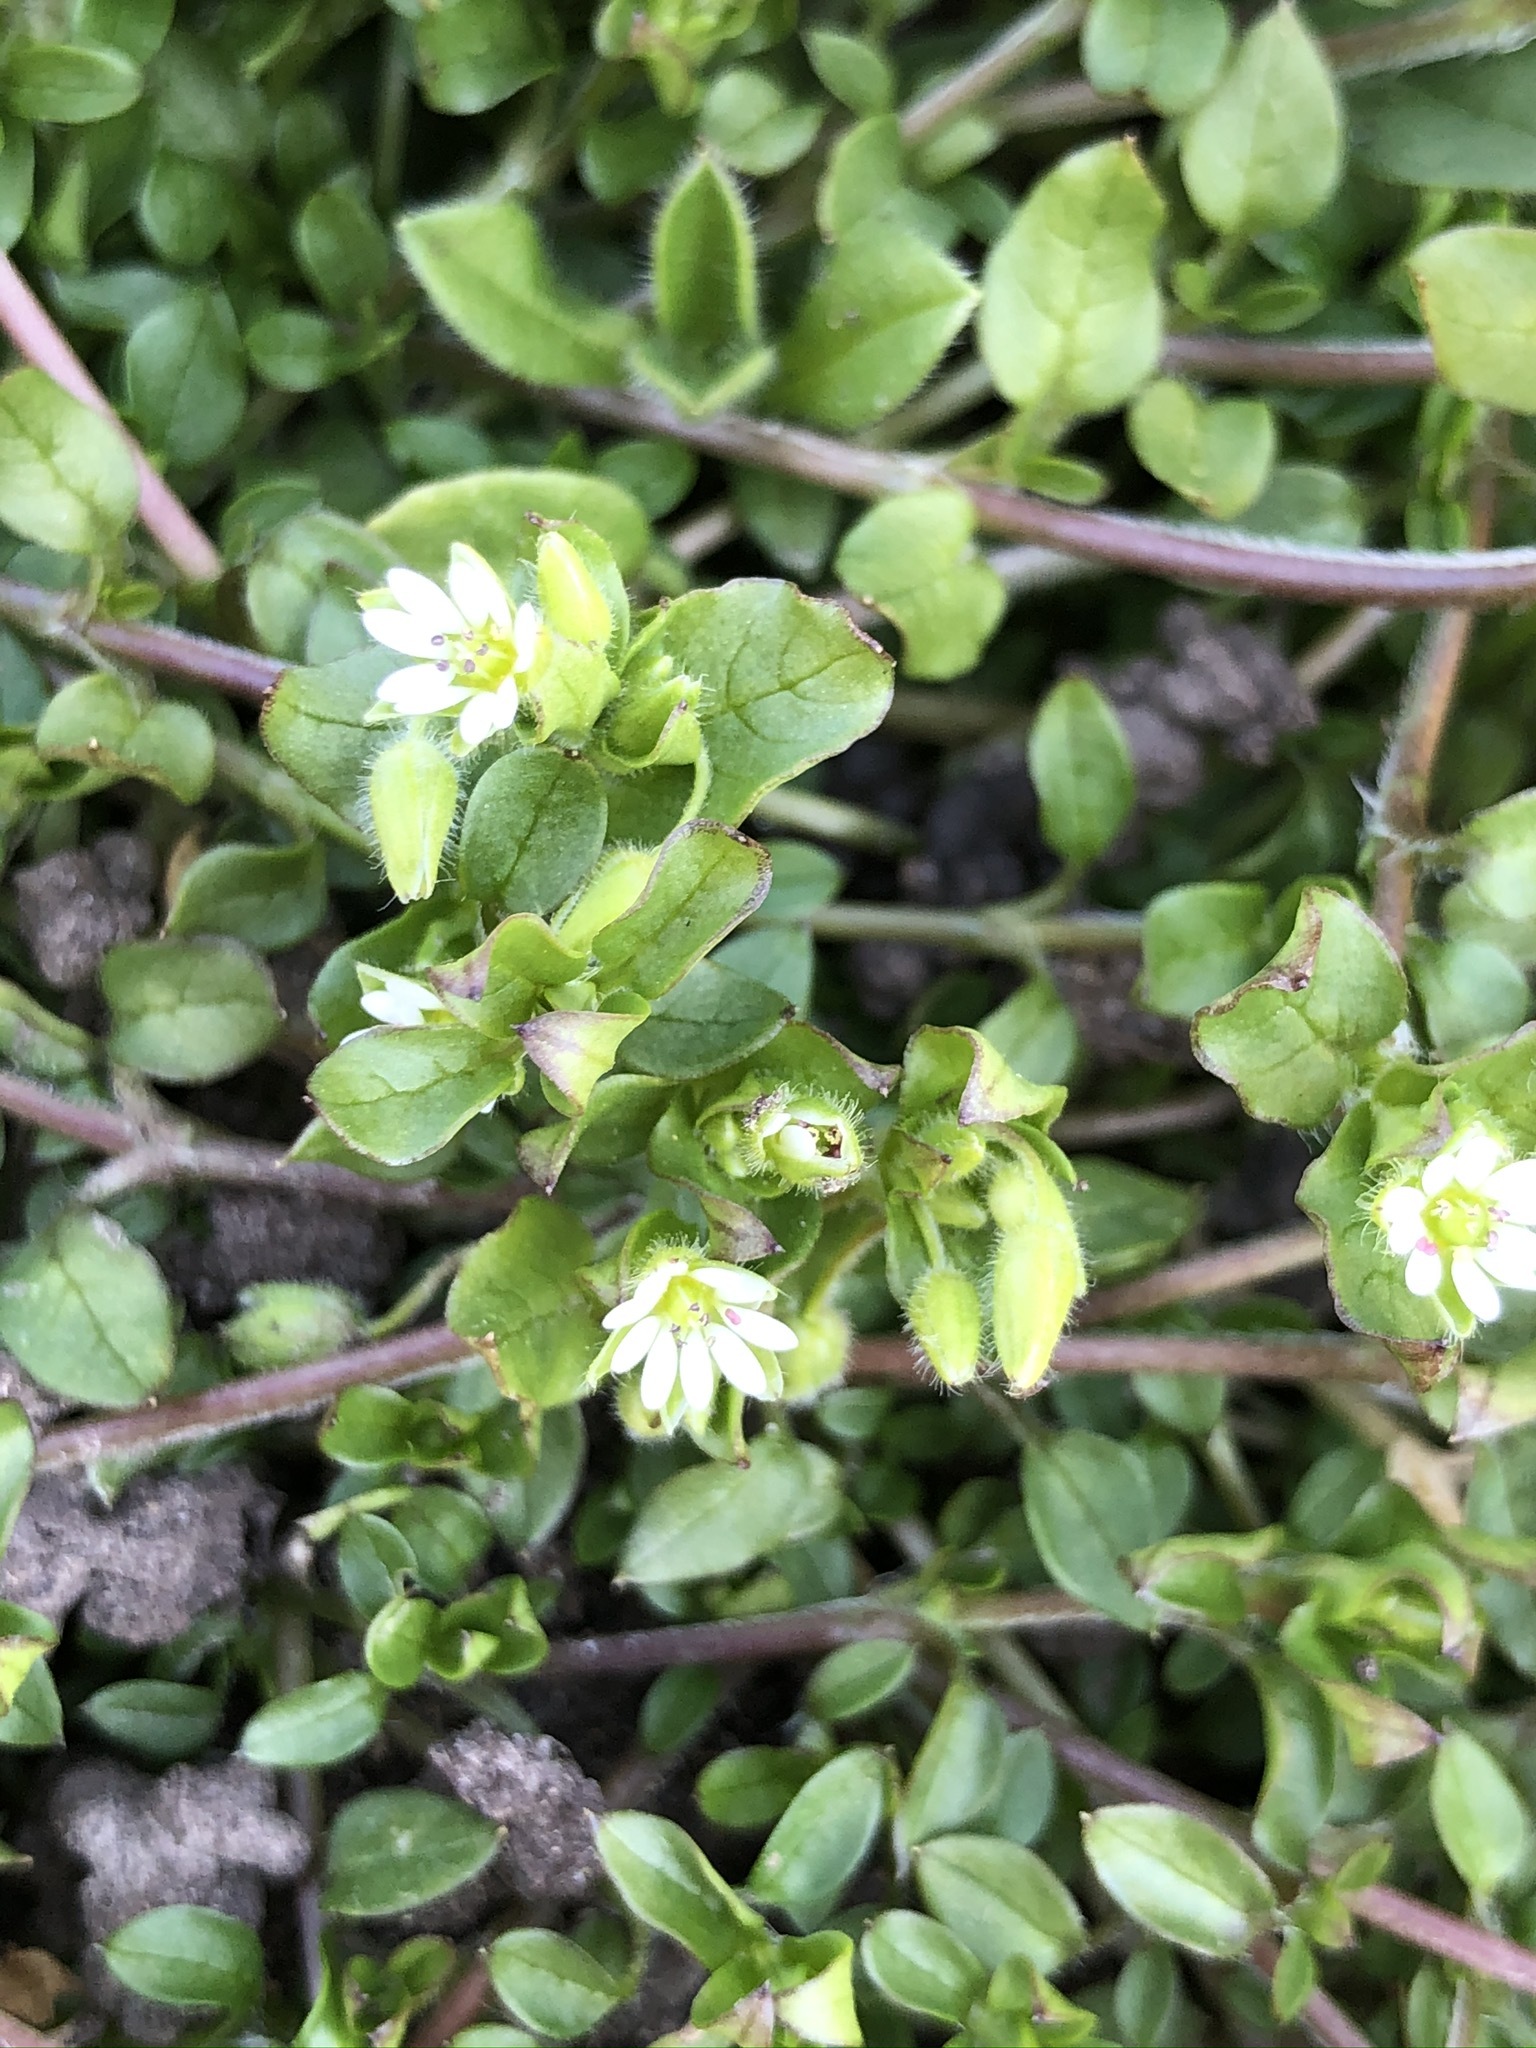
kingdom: Plantae
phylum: Tracheophyta
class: Magnoliopsida
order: Caryophyllales
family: Caryophyllaceae
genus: Stellaria
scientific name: Stellaria media
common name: Common chickweed
